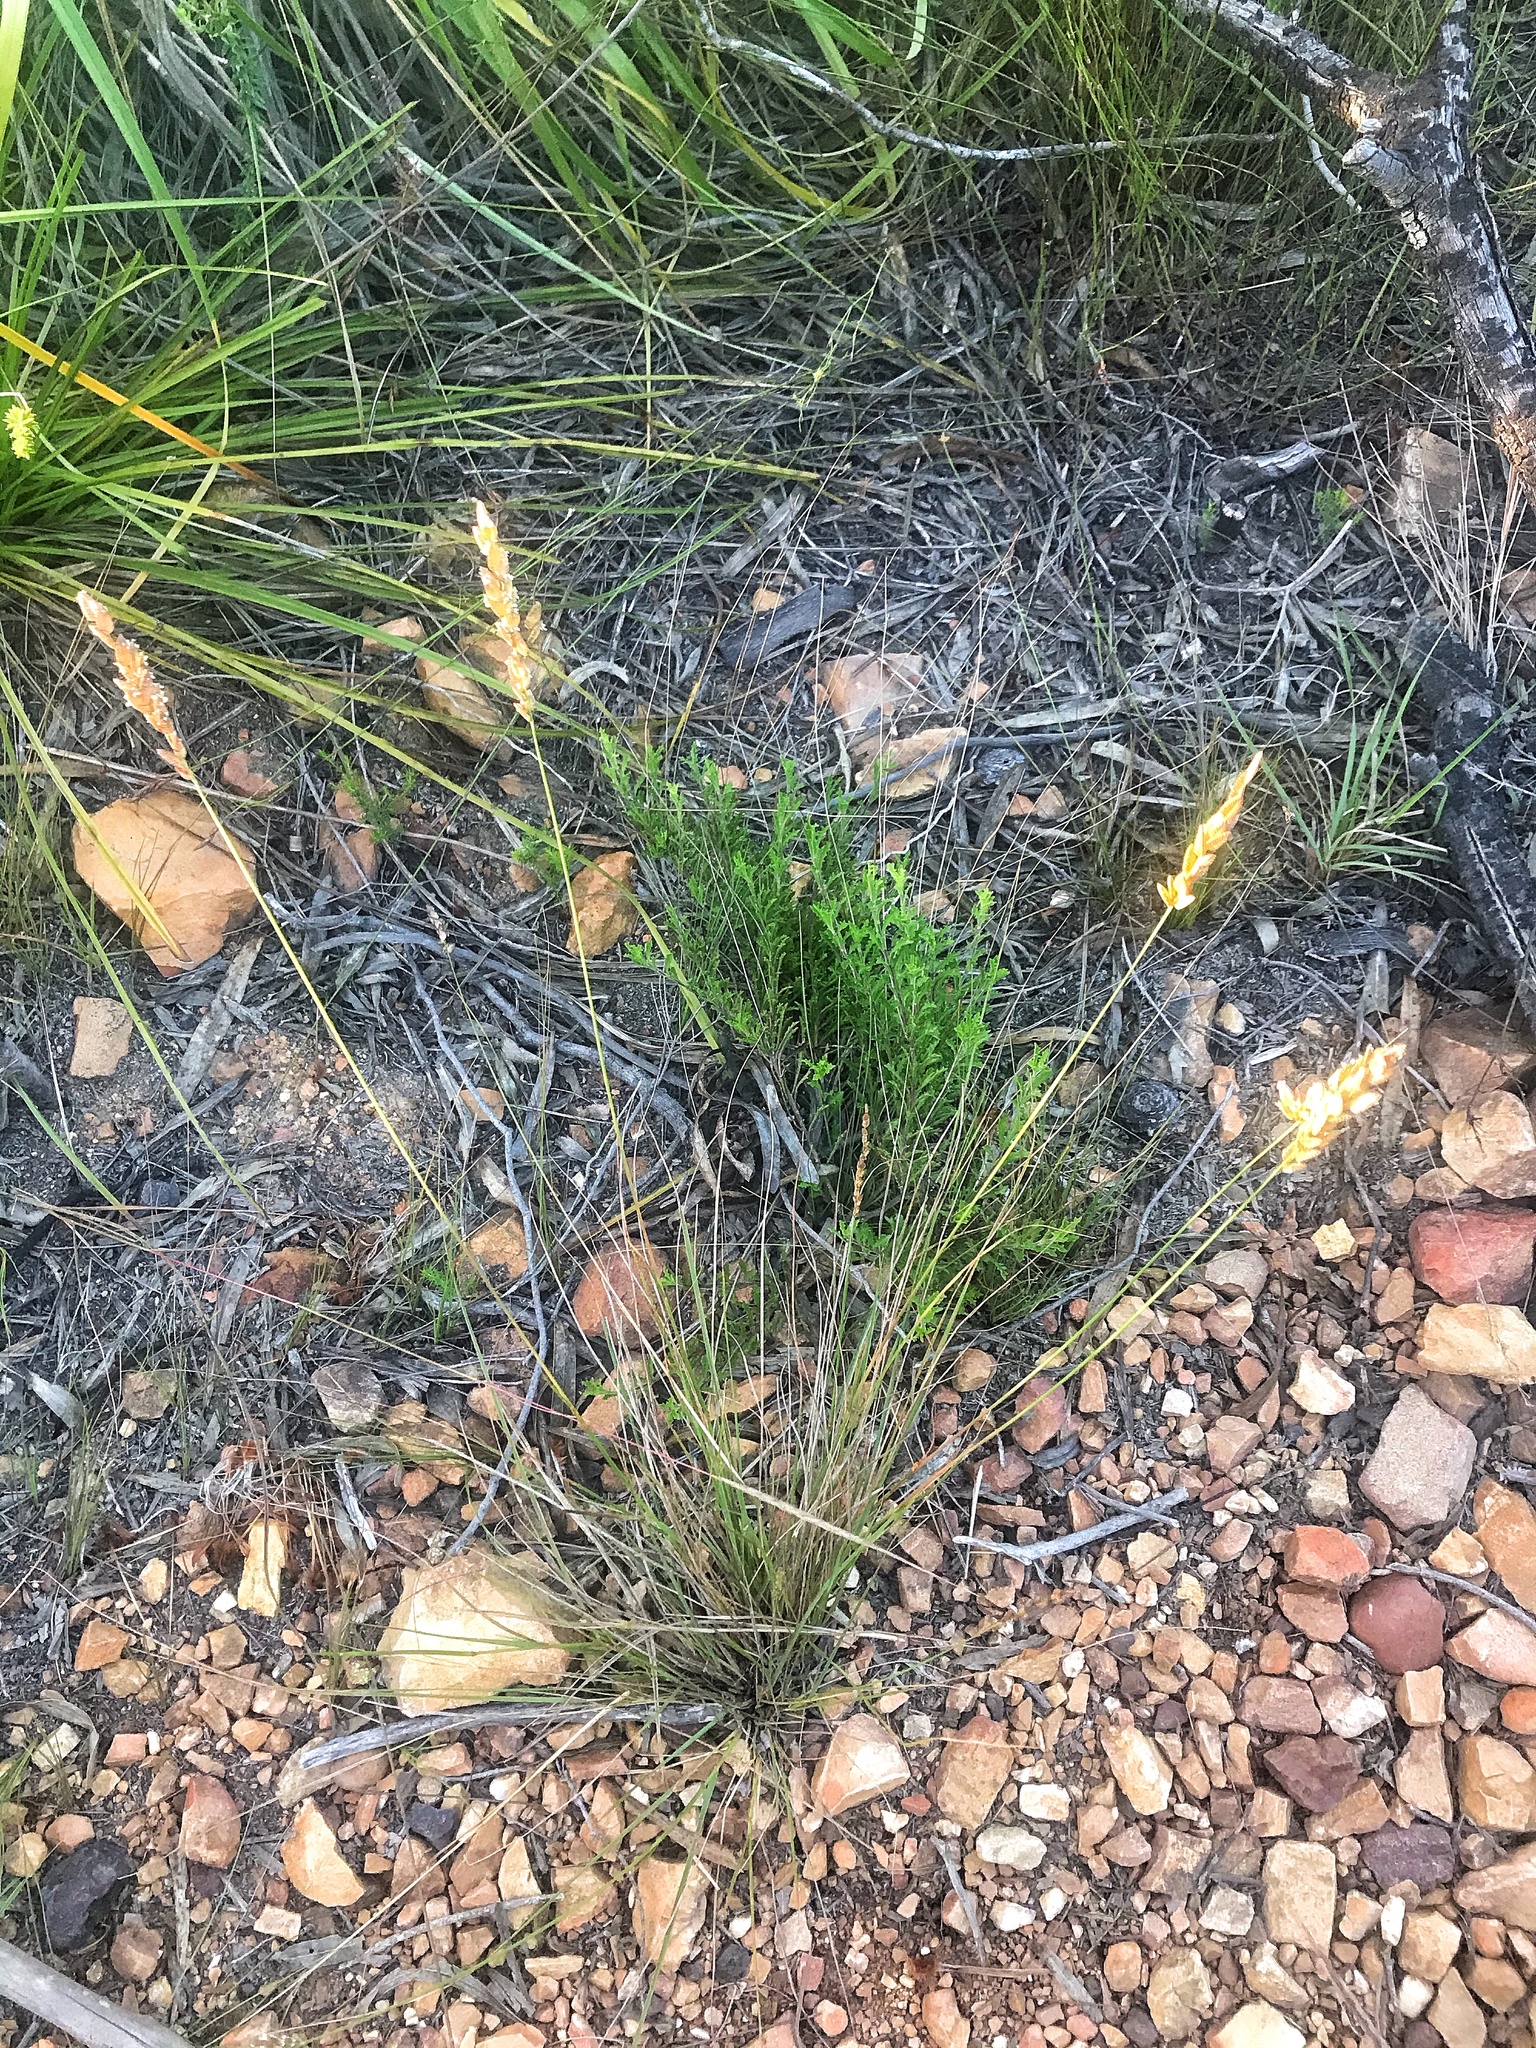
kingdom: Plantae
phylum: Tracheophyta
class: Liliopsida
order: Poales
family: Poaceae
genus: Eragrostis
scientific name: Eragrostis capensis
